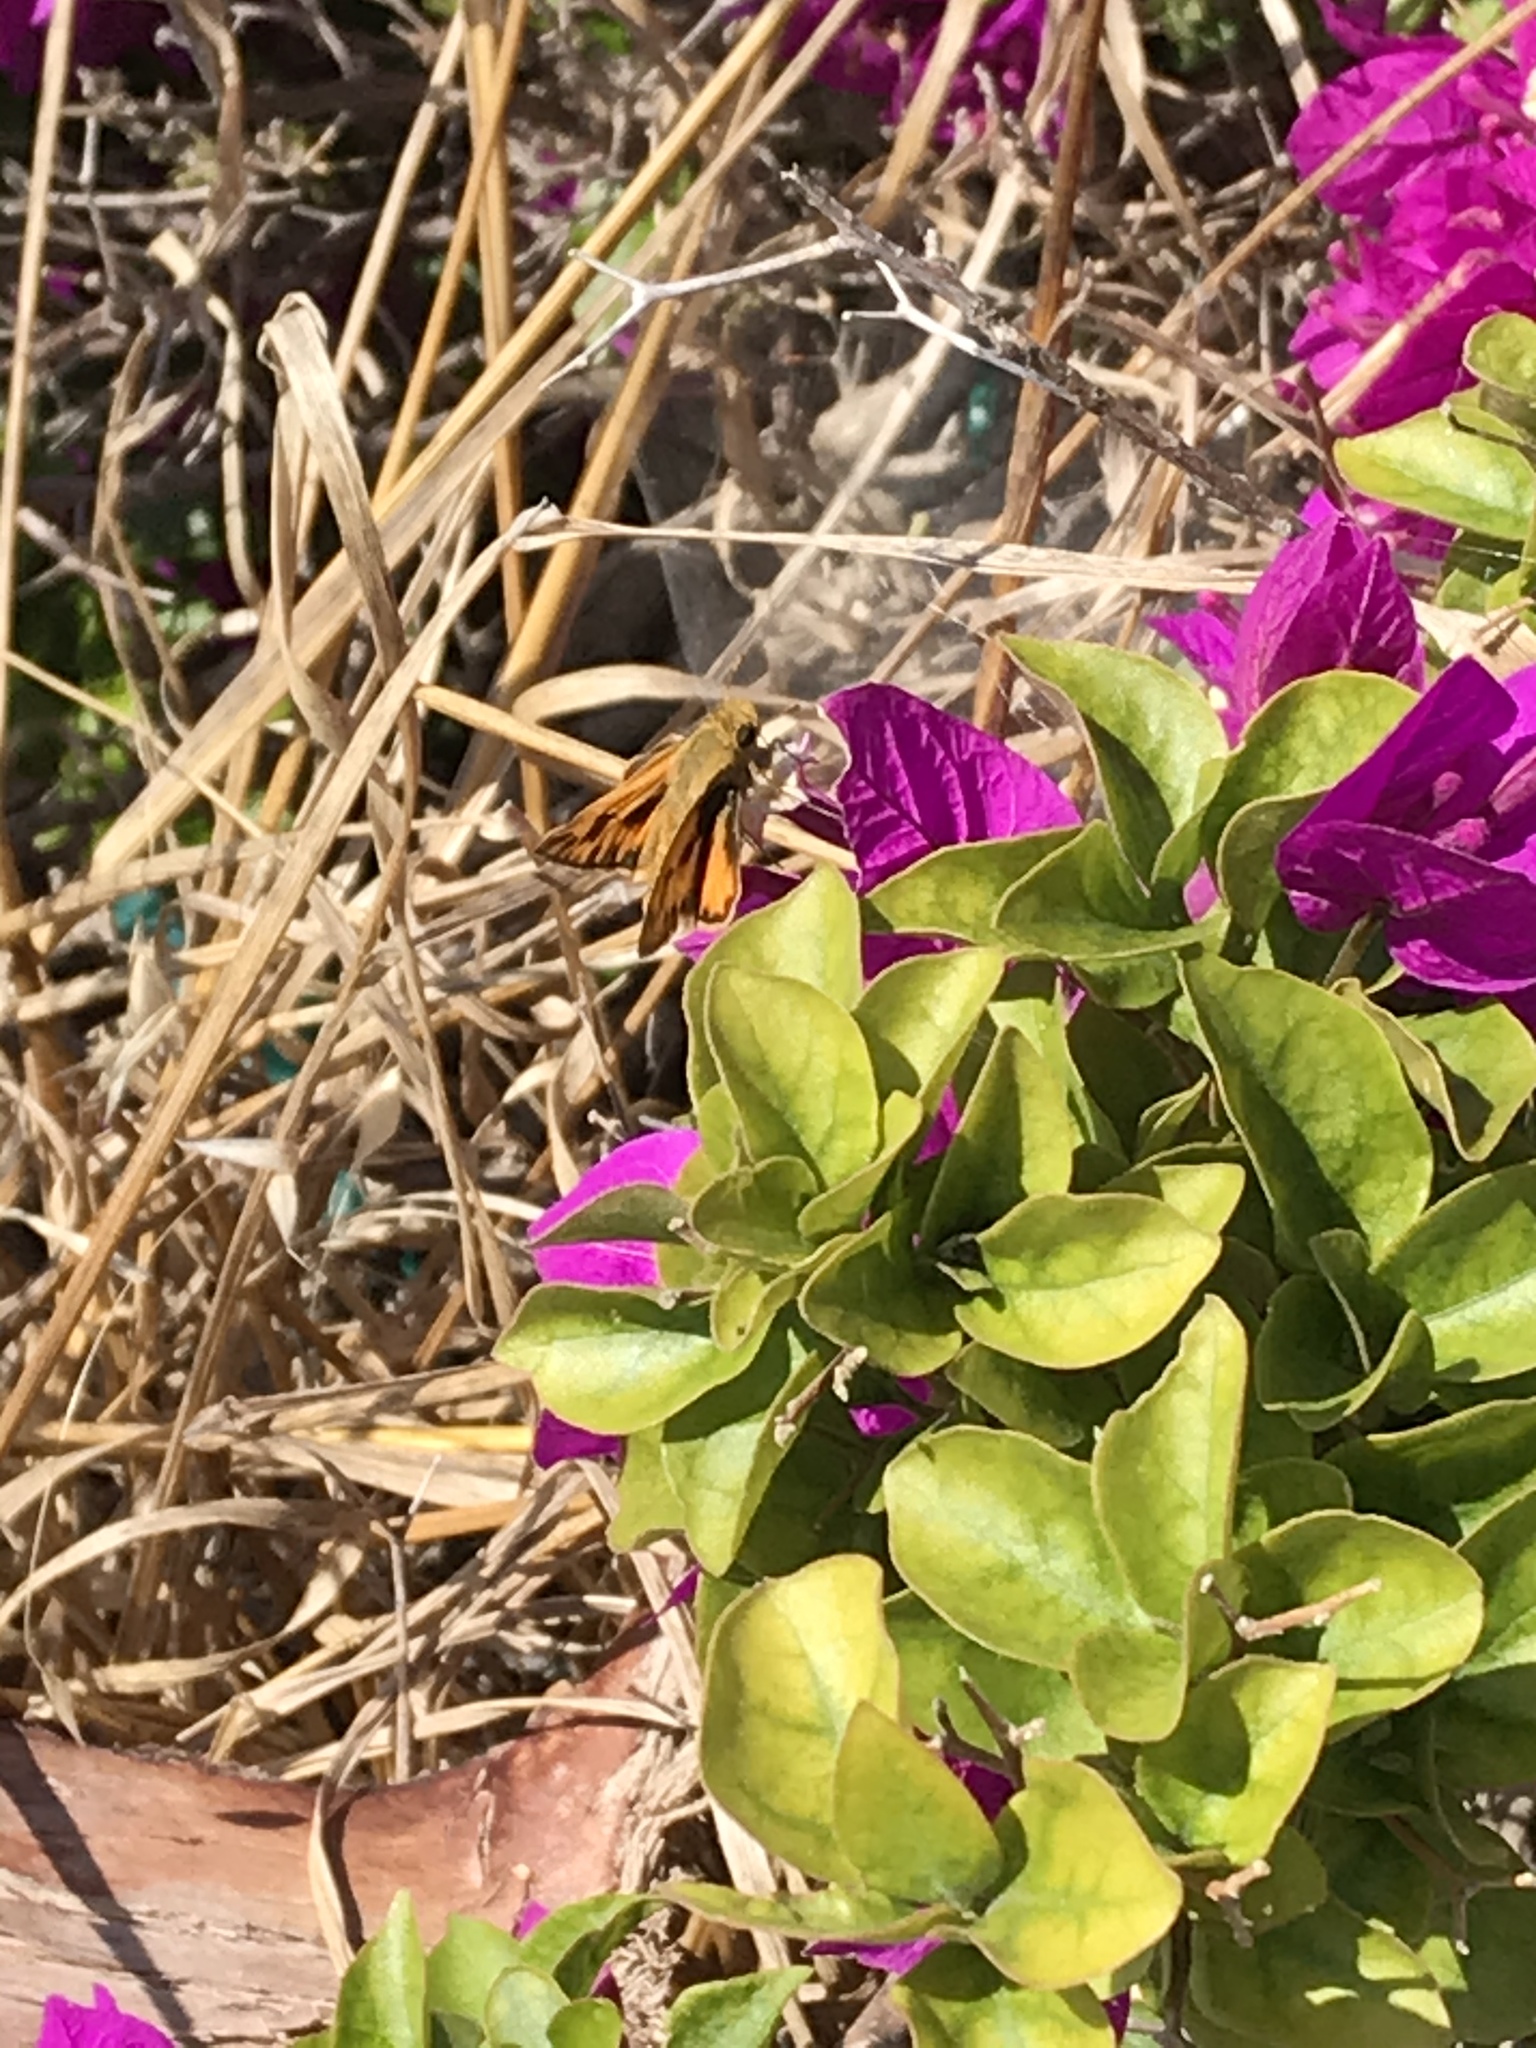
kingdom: Animalia
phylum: Arthropoda
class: Insecta
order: Lepidoptera
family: Hesperiidae
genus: Hylephila
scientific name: Hylephila phyleus
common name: Fiery skipper
